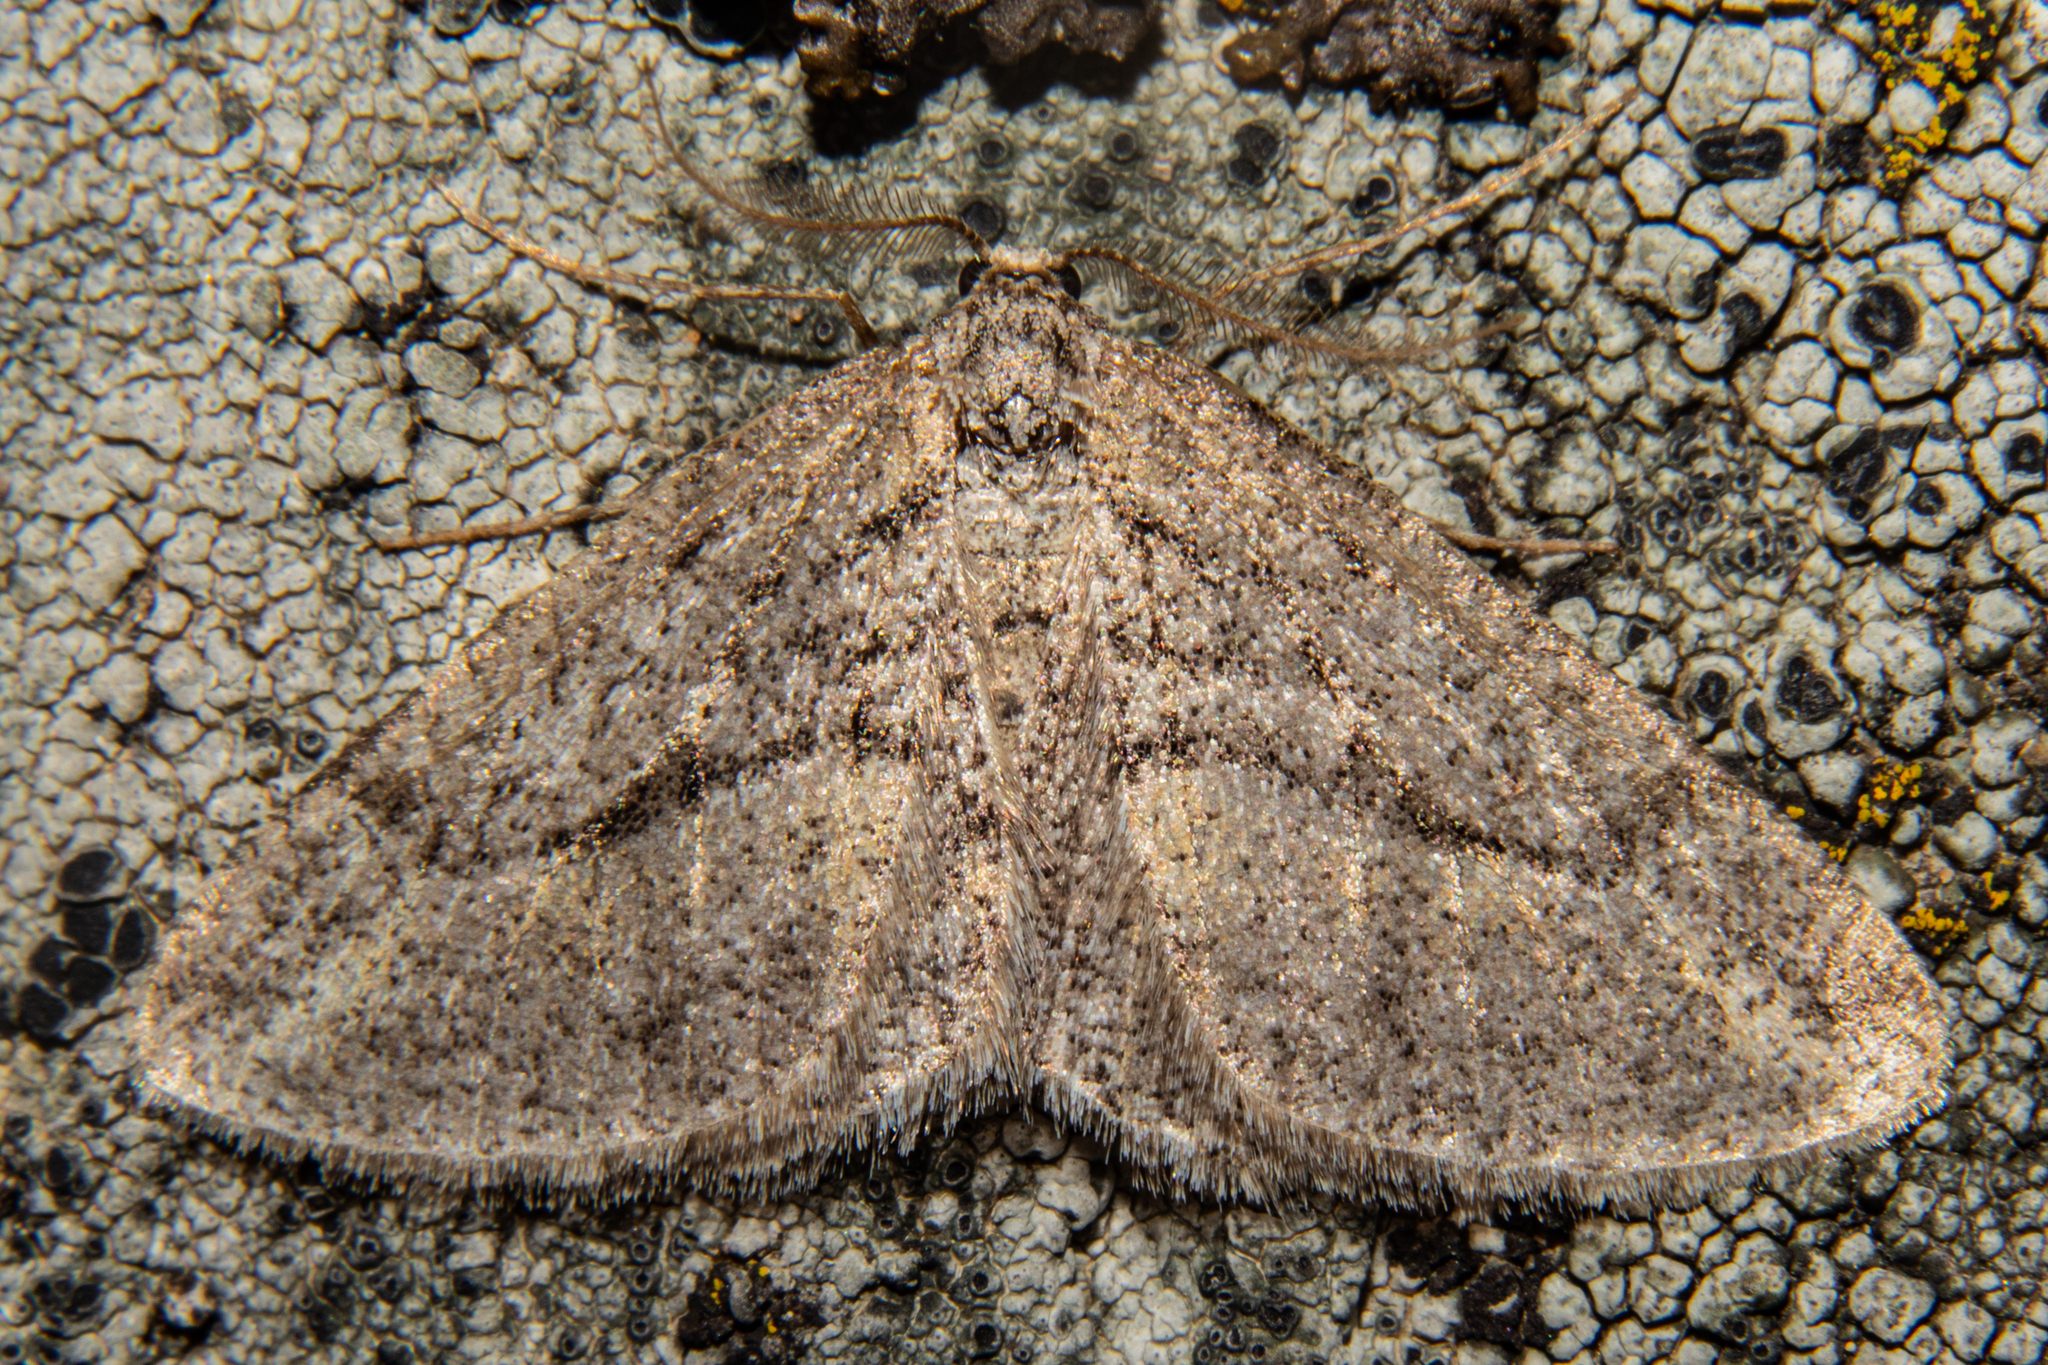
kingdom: Animalia
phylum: Arthropoda
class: Insecta
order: Lepidoptera
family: Geometridae
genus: Zermizinga
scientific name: Zermizinga indocilisaria
